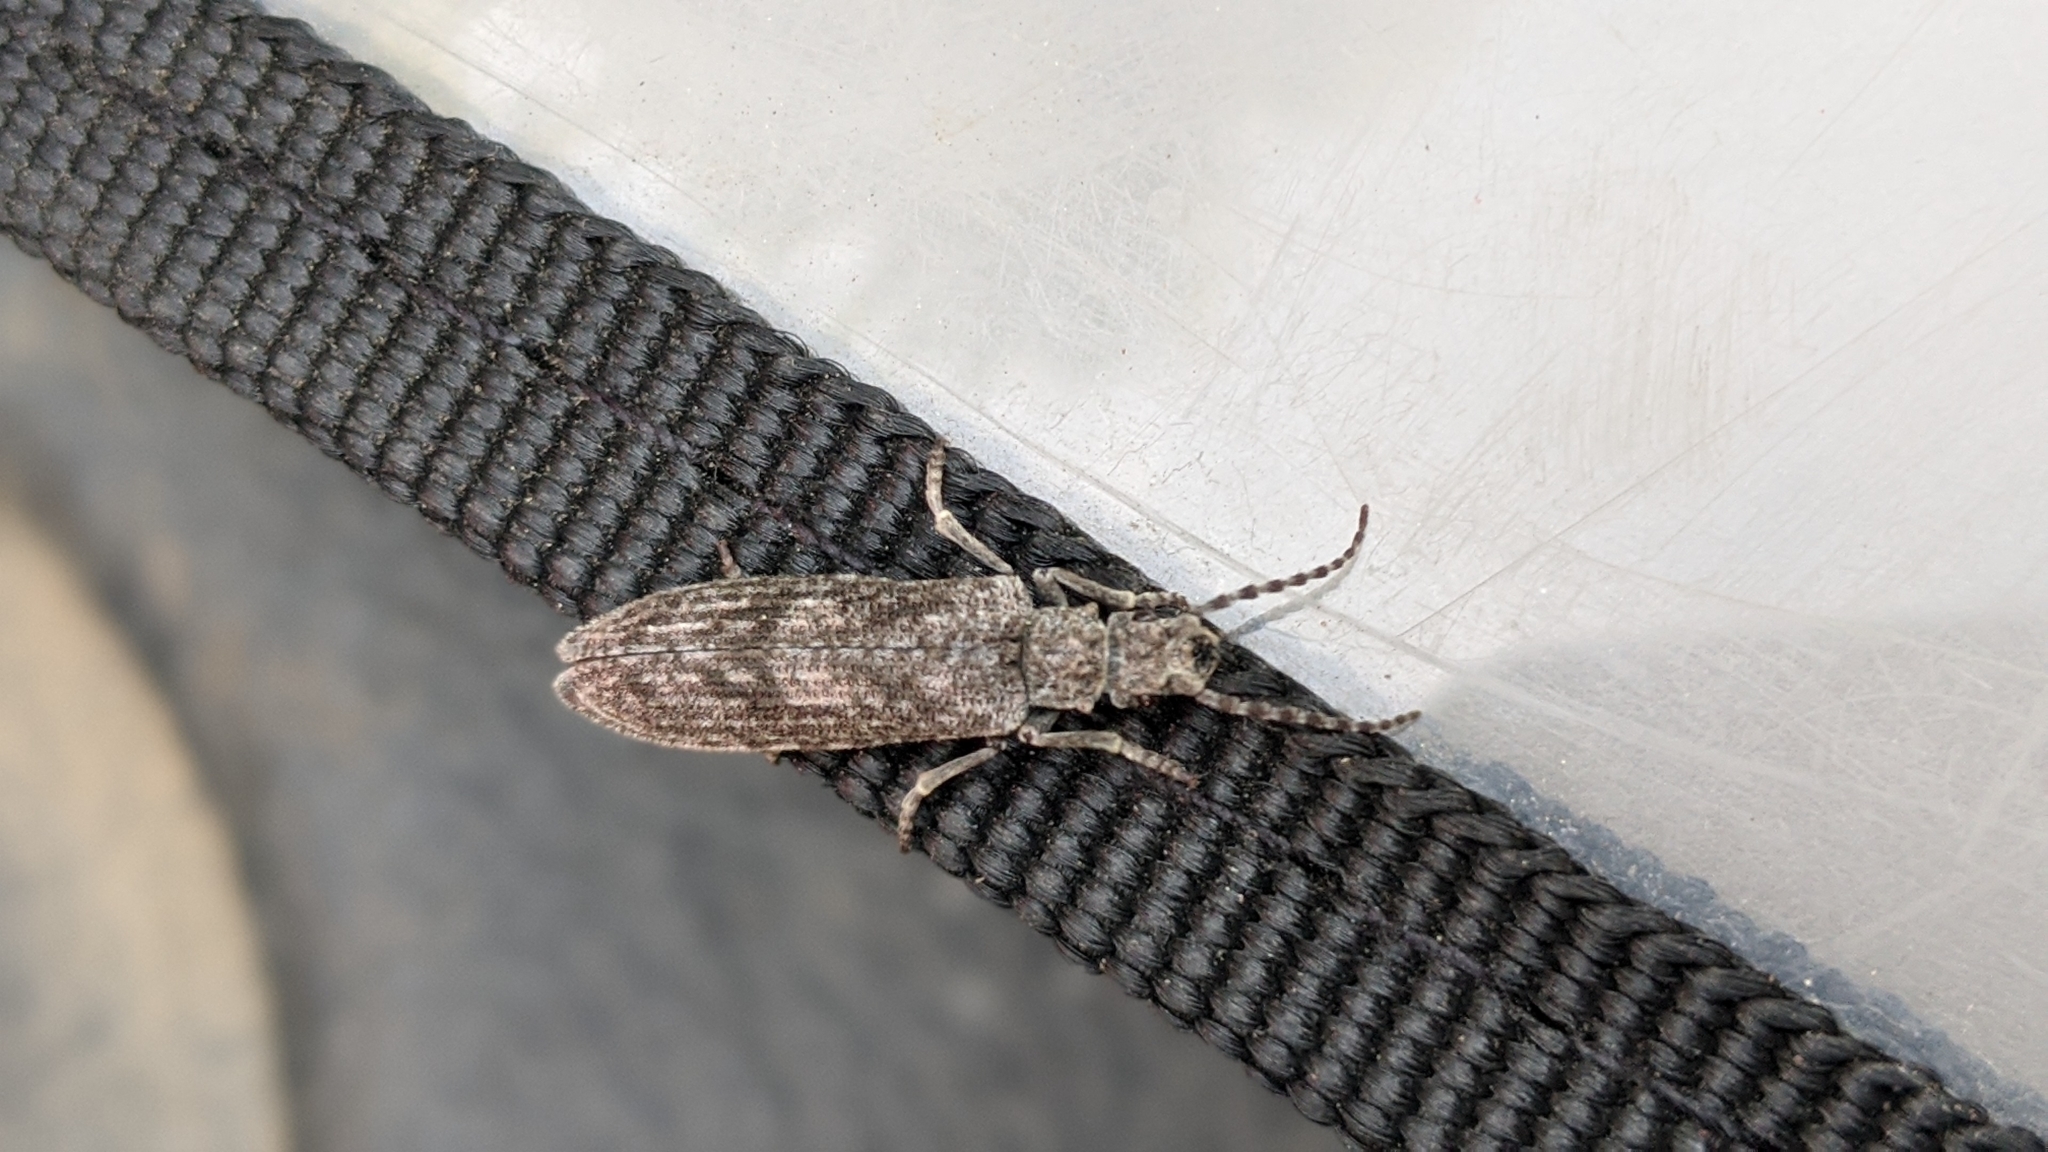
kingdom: Animalia
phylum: Arthropoda
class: Insecta
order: Coleoptera
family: Cupedidae
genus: Priacma
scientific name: Priacma serrata
